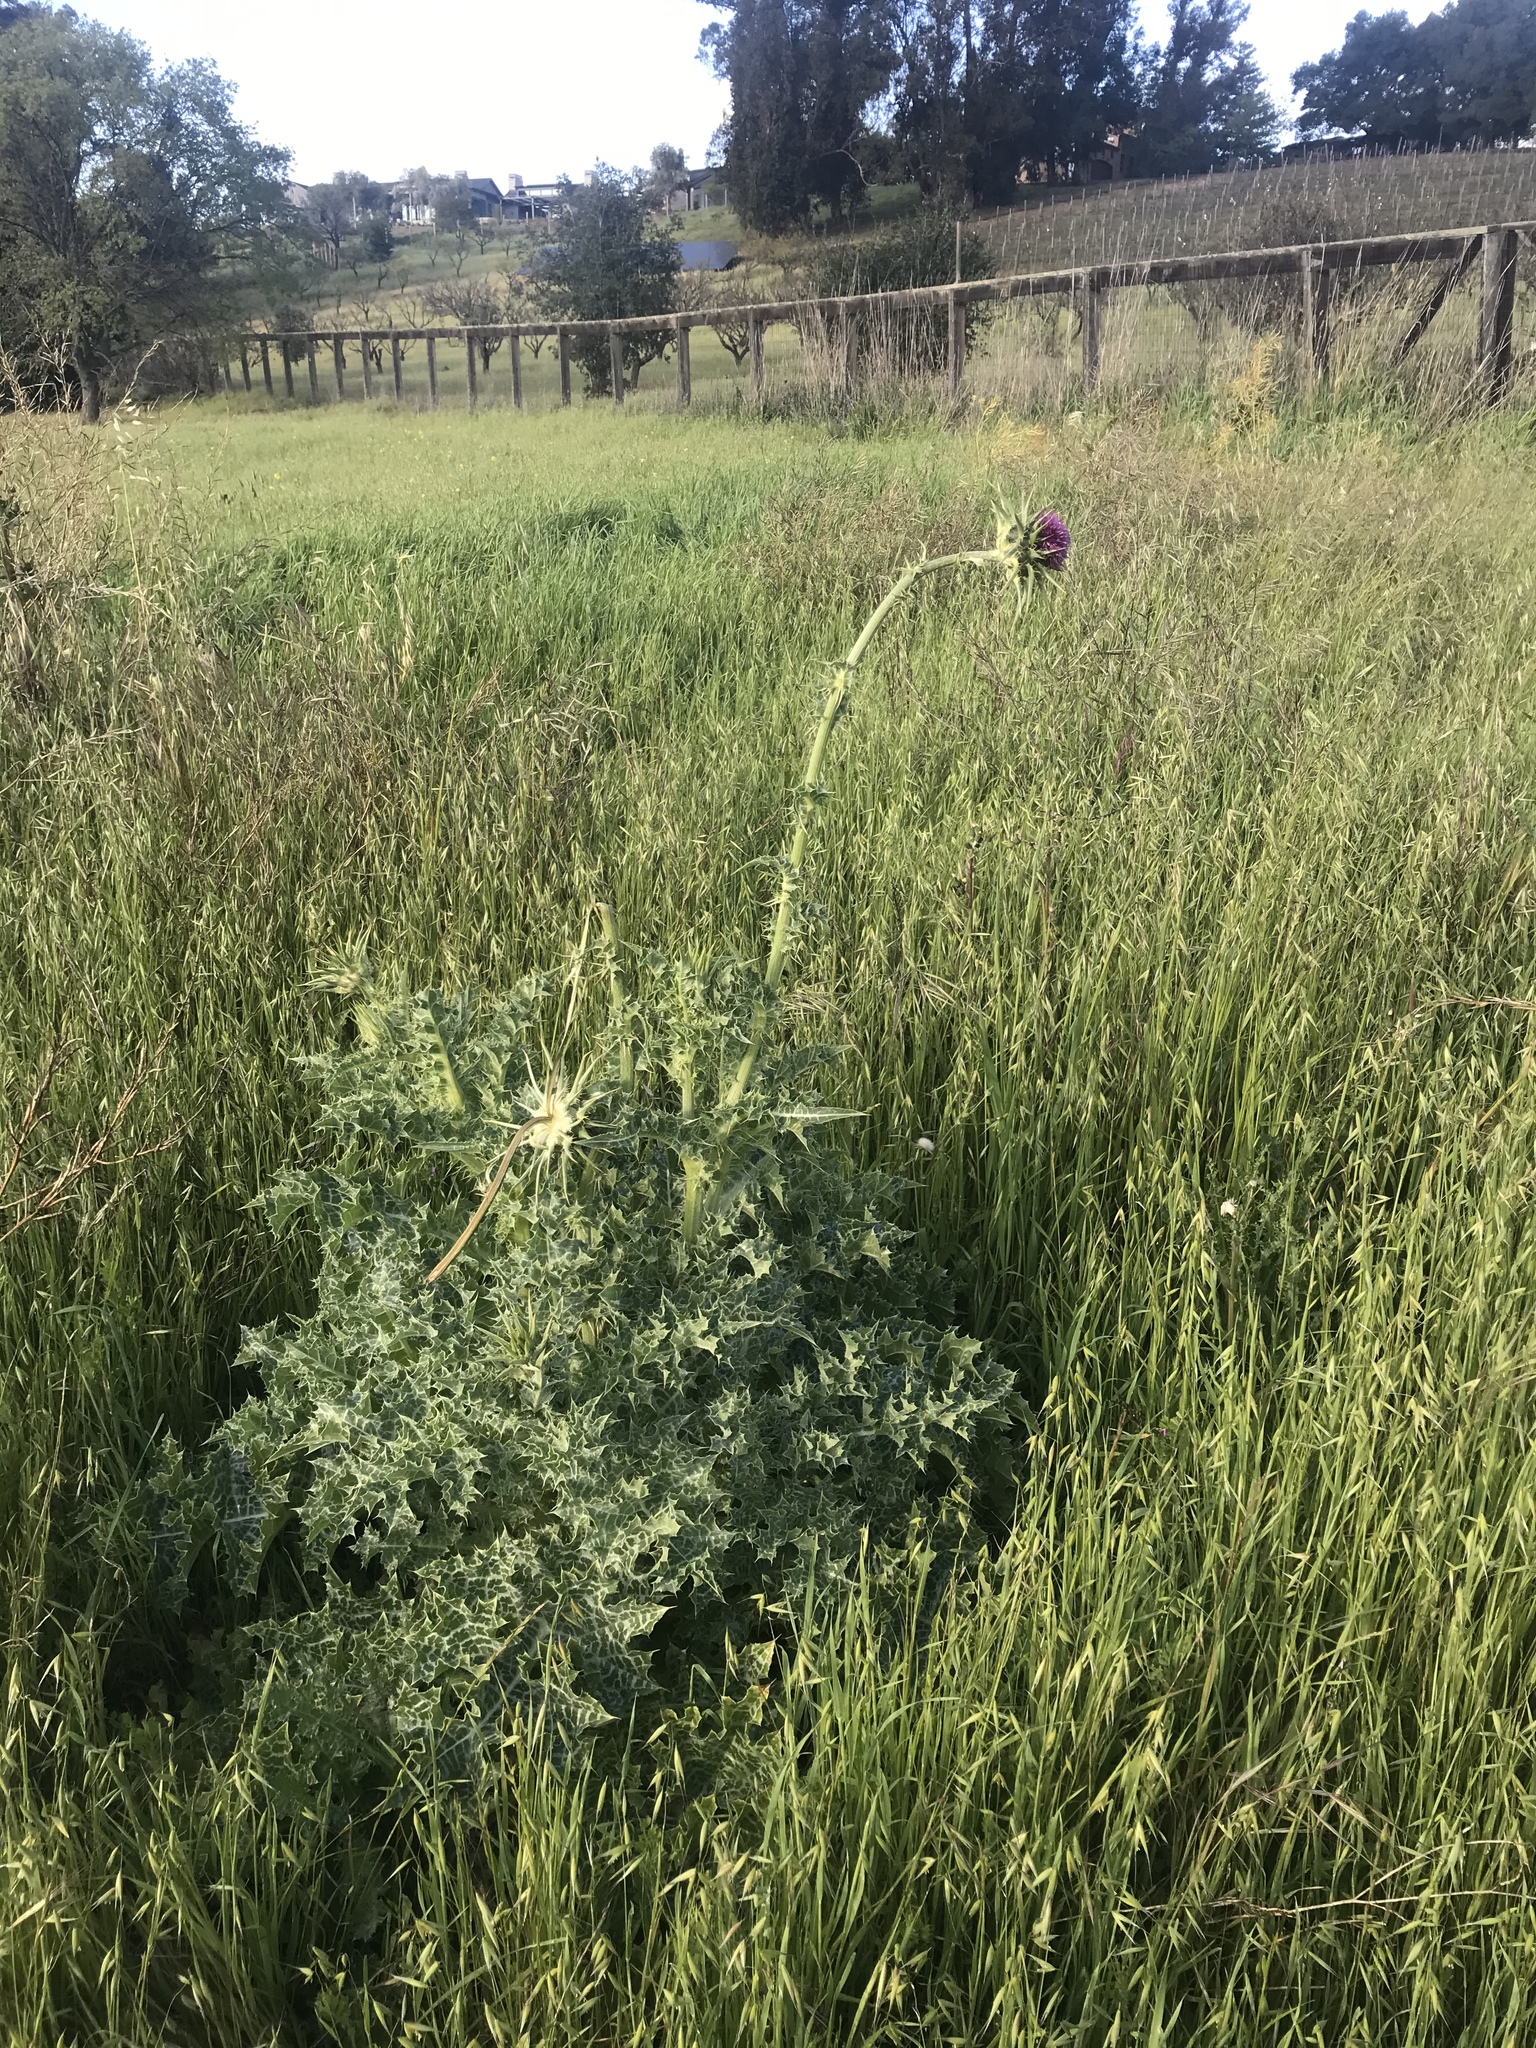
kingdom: Plantae
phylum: Tracheophyta
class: Magnoliopsida
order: Asterales
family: Asteraceae
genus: Silybum
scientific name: Silybum marianum
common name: Milk thistle
